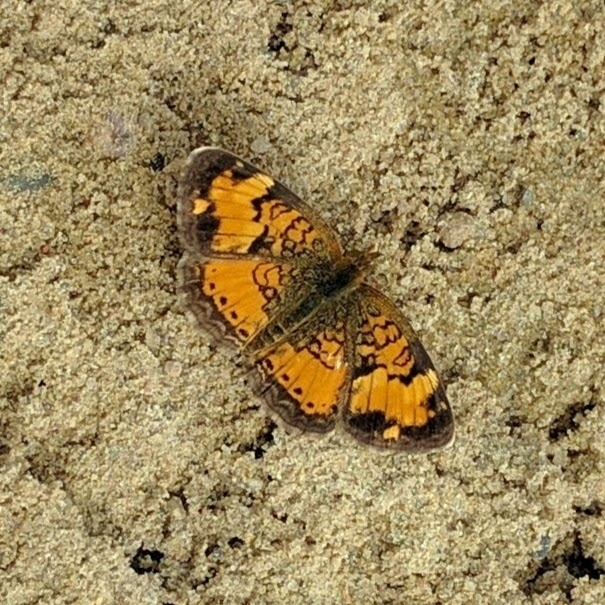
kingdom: Animalia
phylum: Arthropoda
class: Insecta
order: Lepidoptera
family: Nymphalidae
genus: Phyciodes
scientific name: Phyciodes tharos
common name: Pearl crescent
